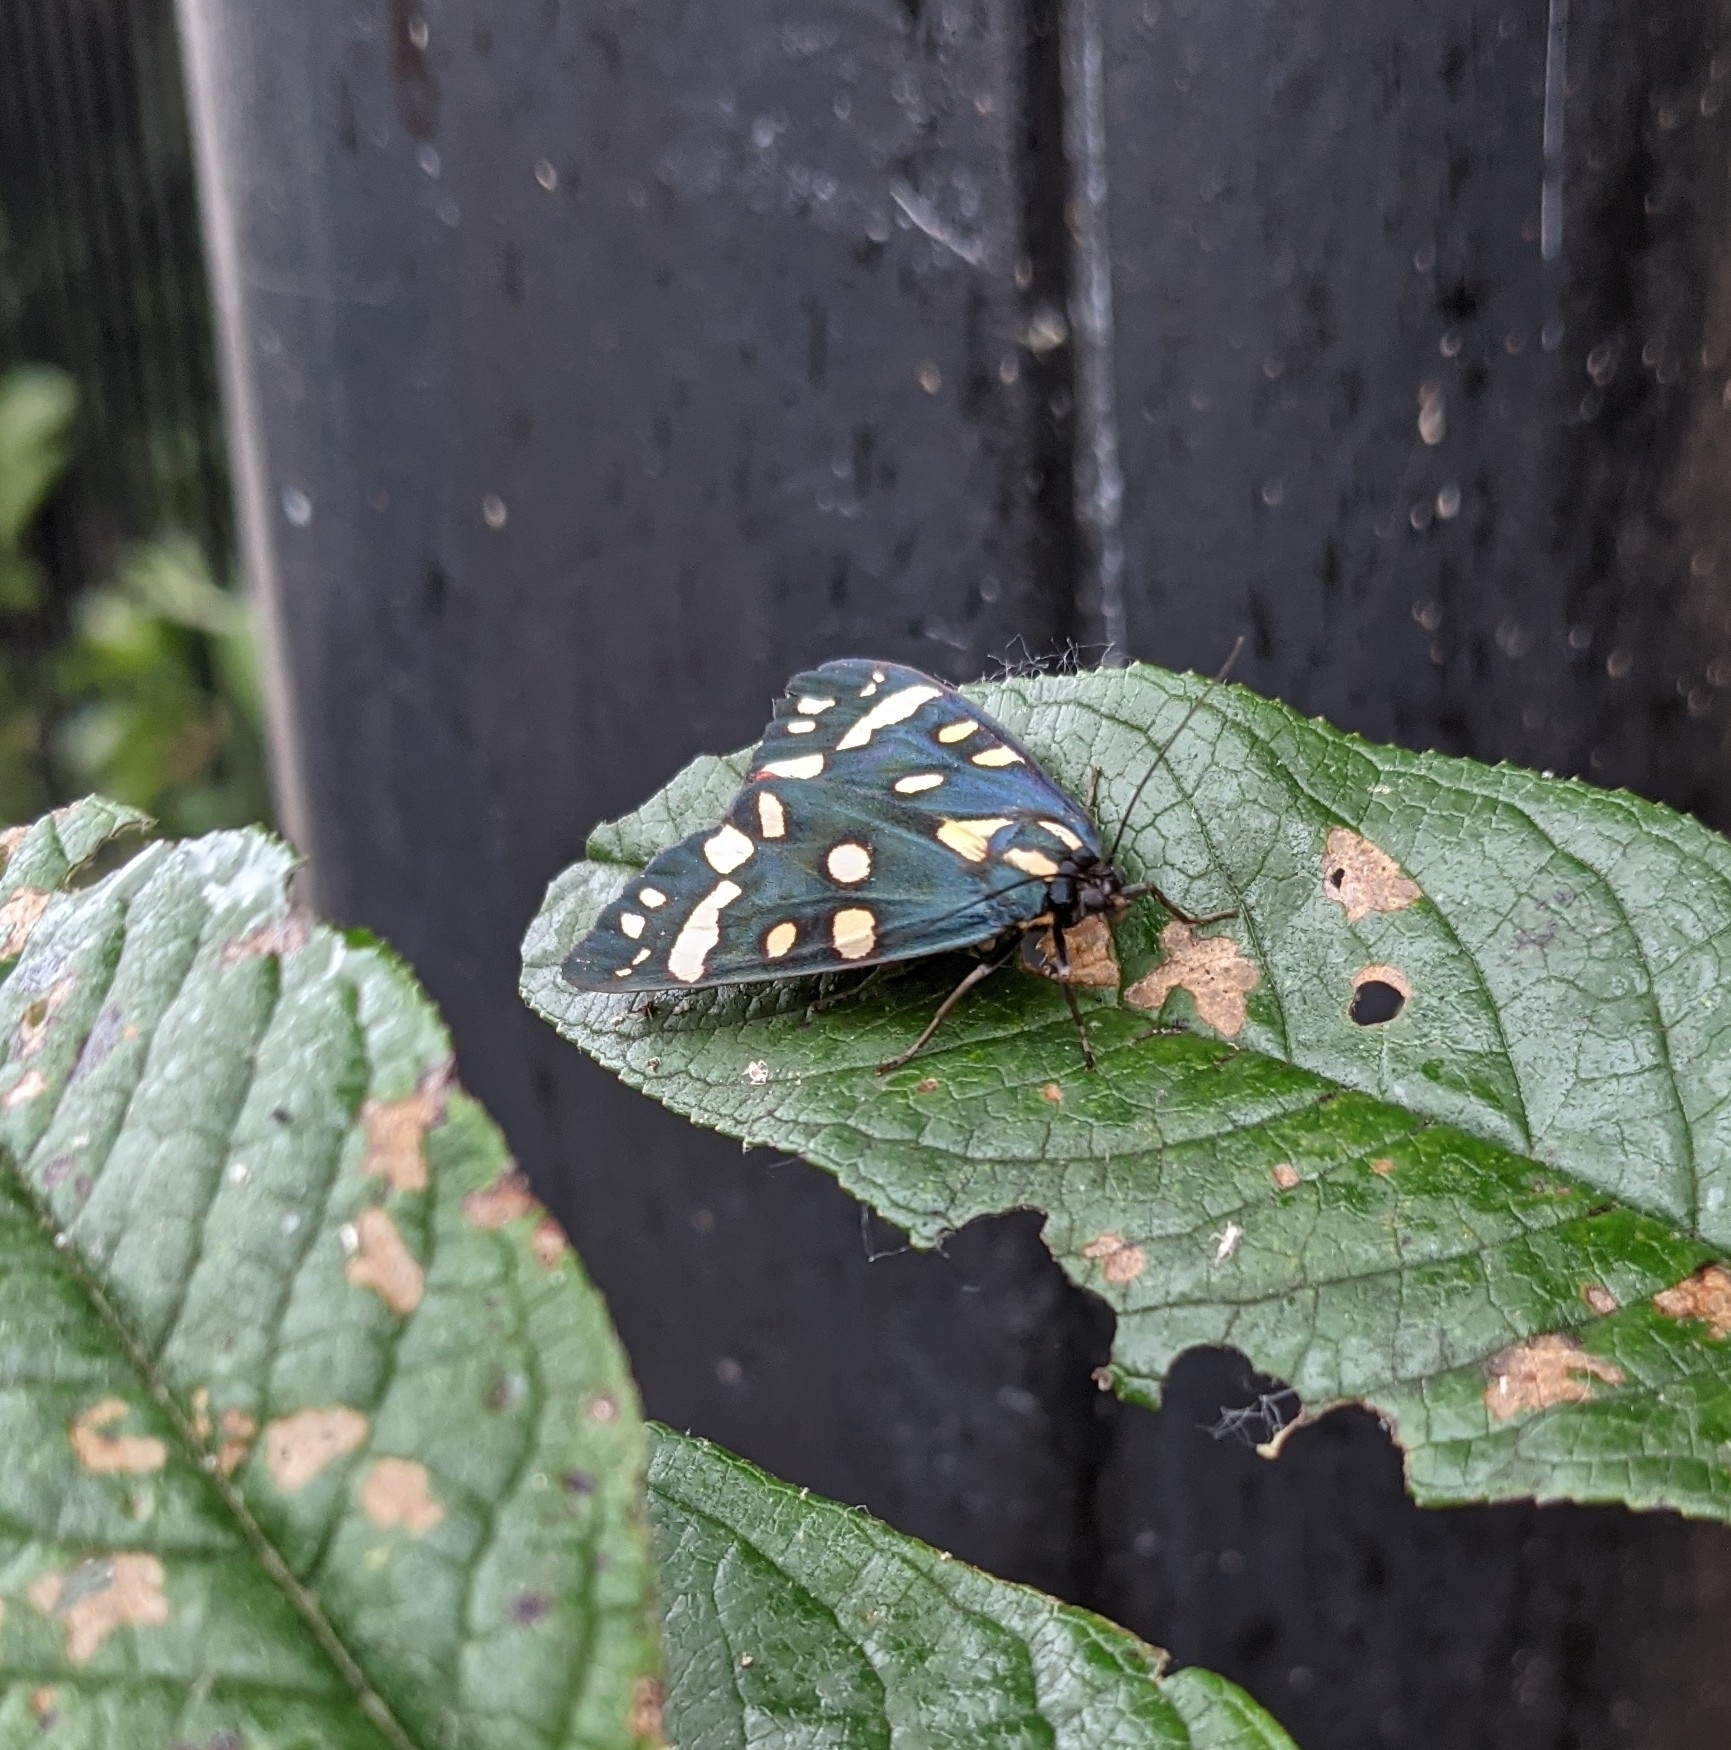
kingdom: Animalia
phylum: Arthropoda
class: Insecta
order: Lepidoptera
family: Erebidae
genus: Callimorpha
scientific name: Callimorpha dominula
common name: Scarlet tiger
